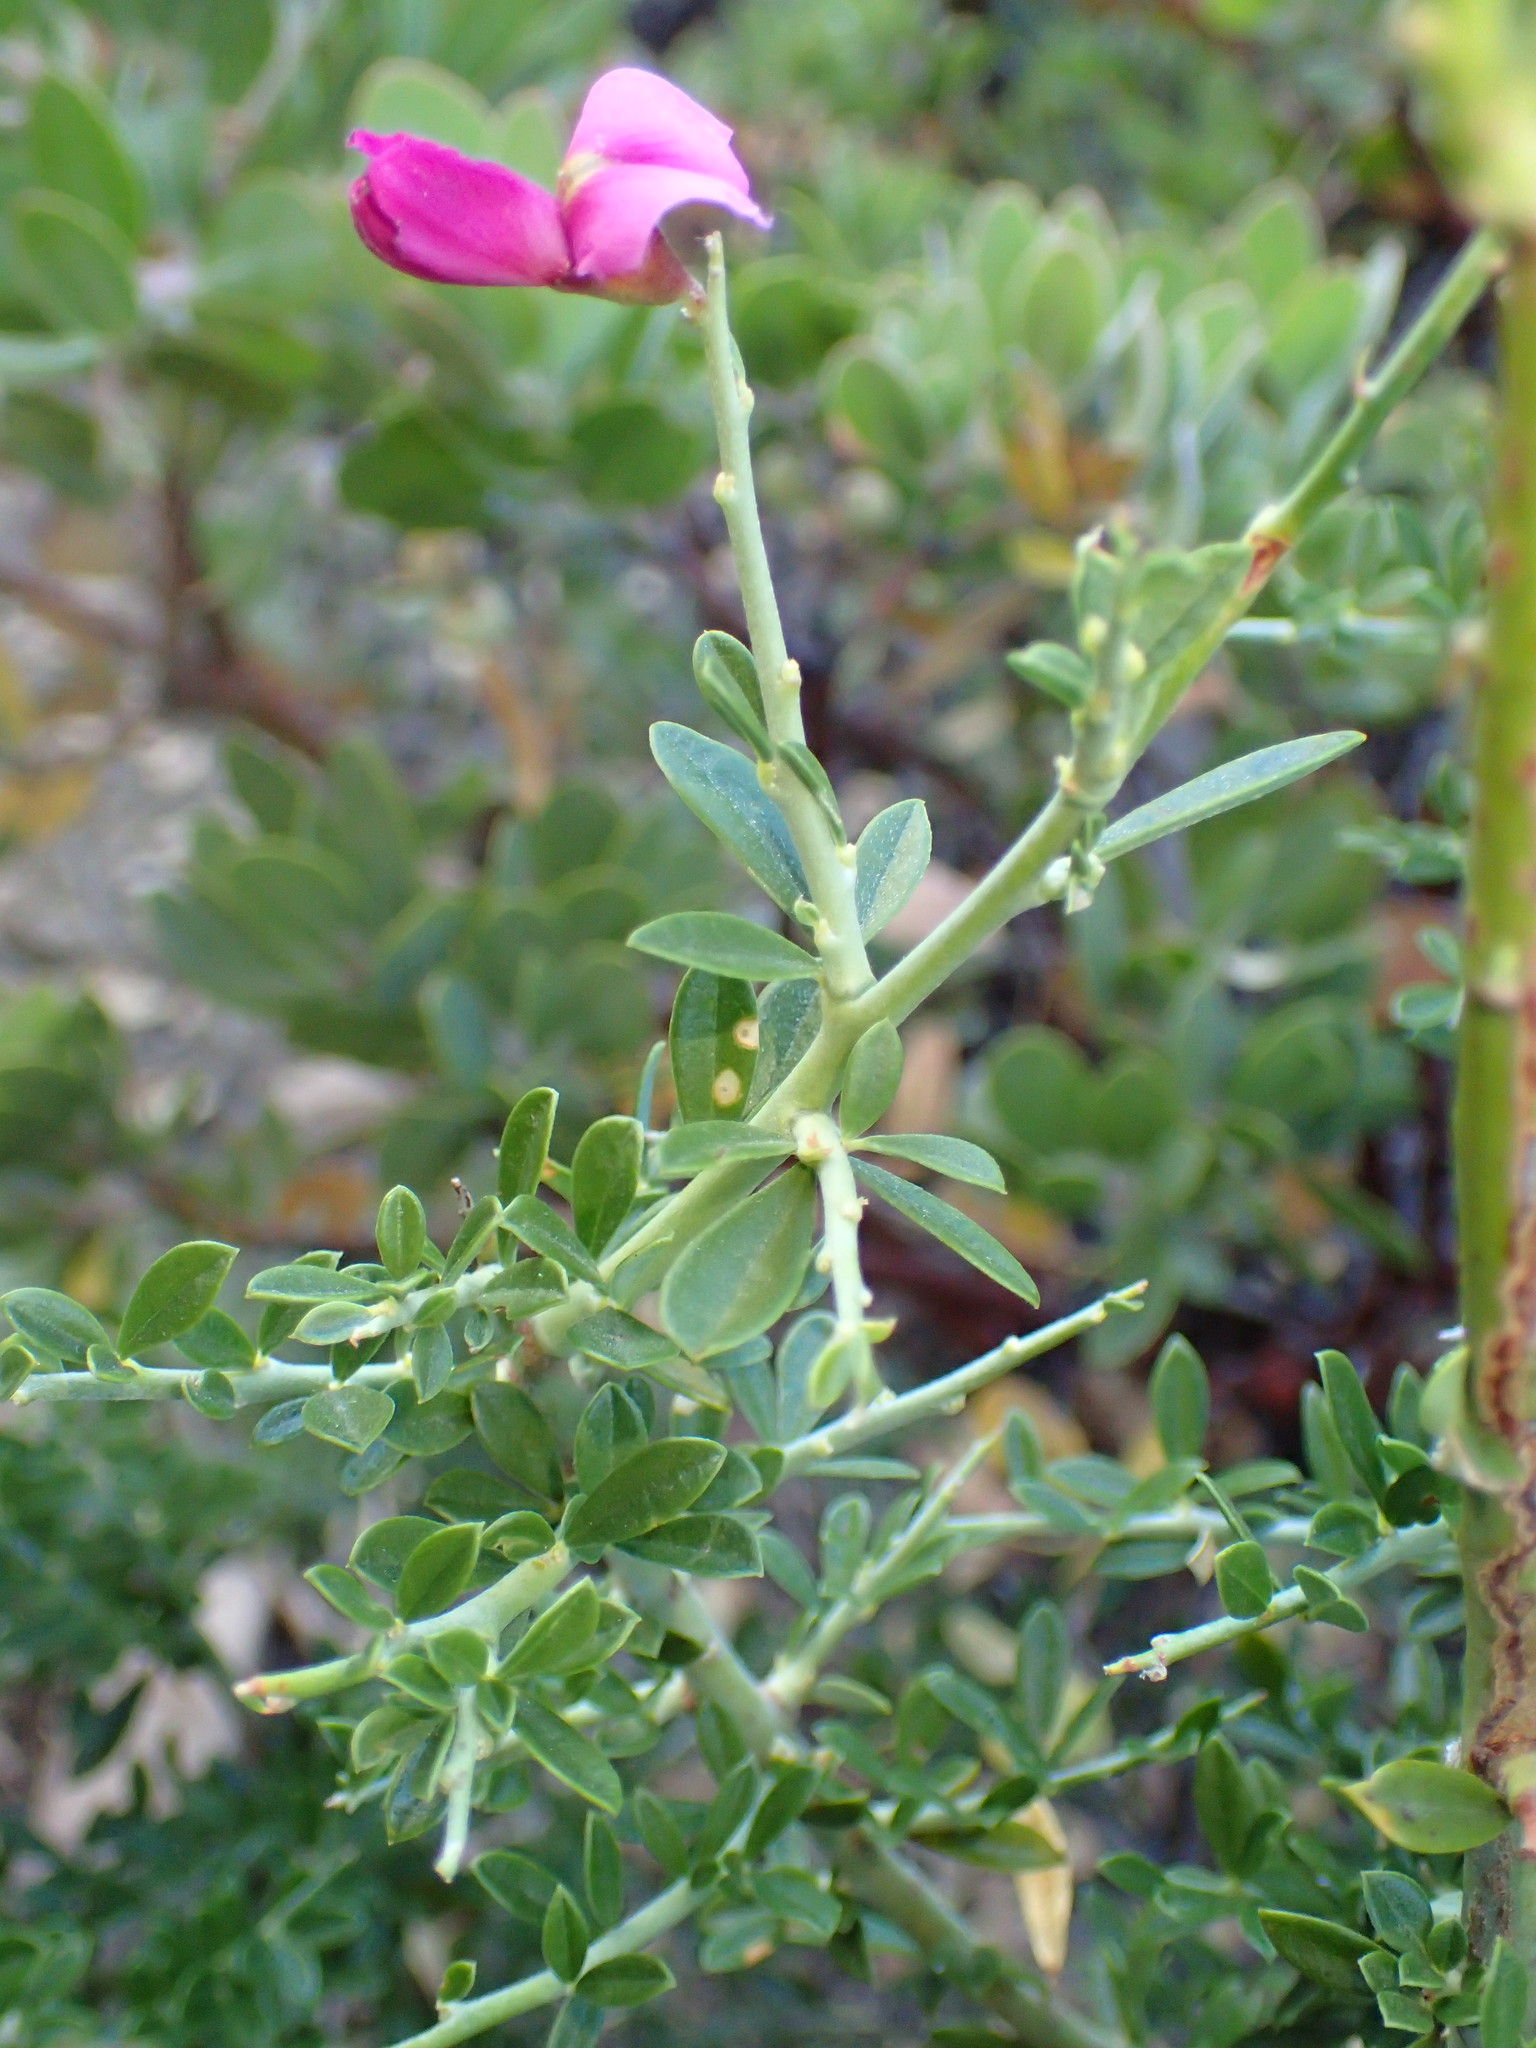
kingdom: Plantae
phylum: Tracheophyta
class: Magnoliopsida
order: Fabales
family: Fabaceae
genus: Pickeringia
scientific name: Pickeringia montana
